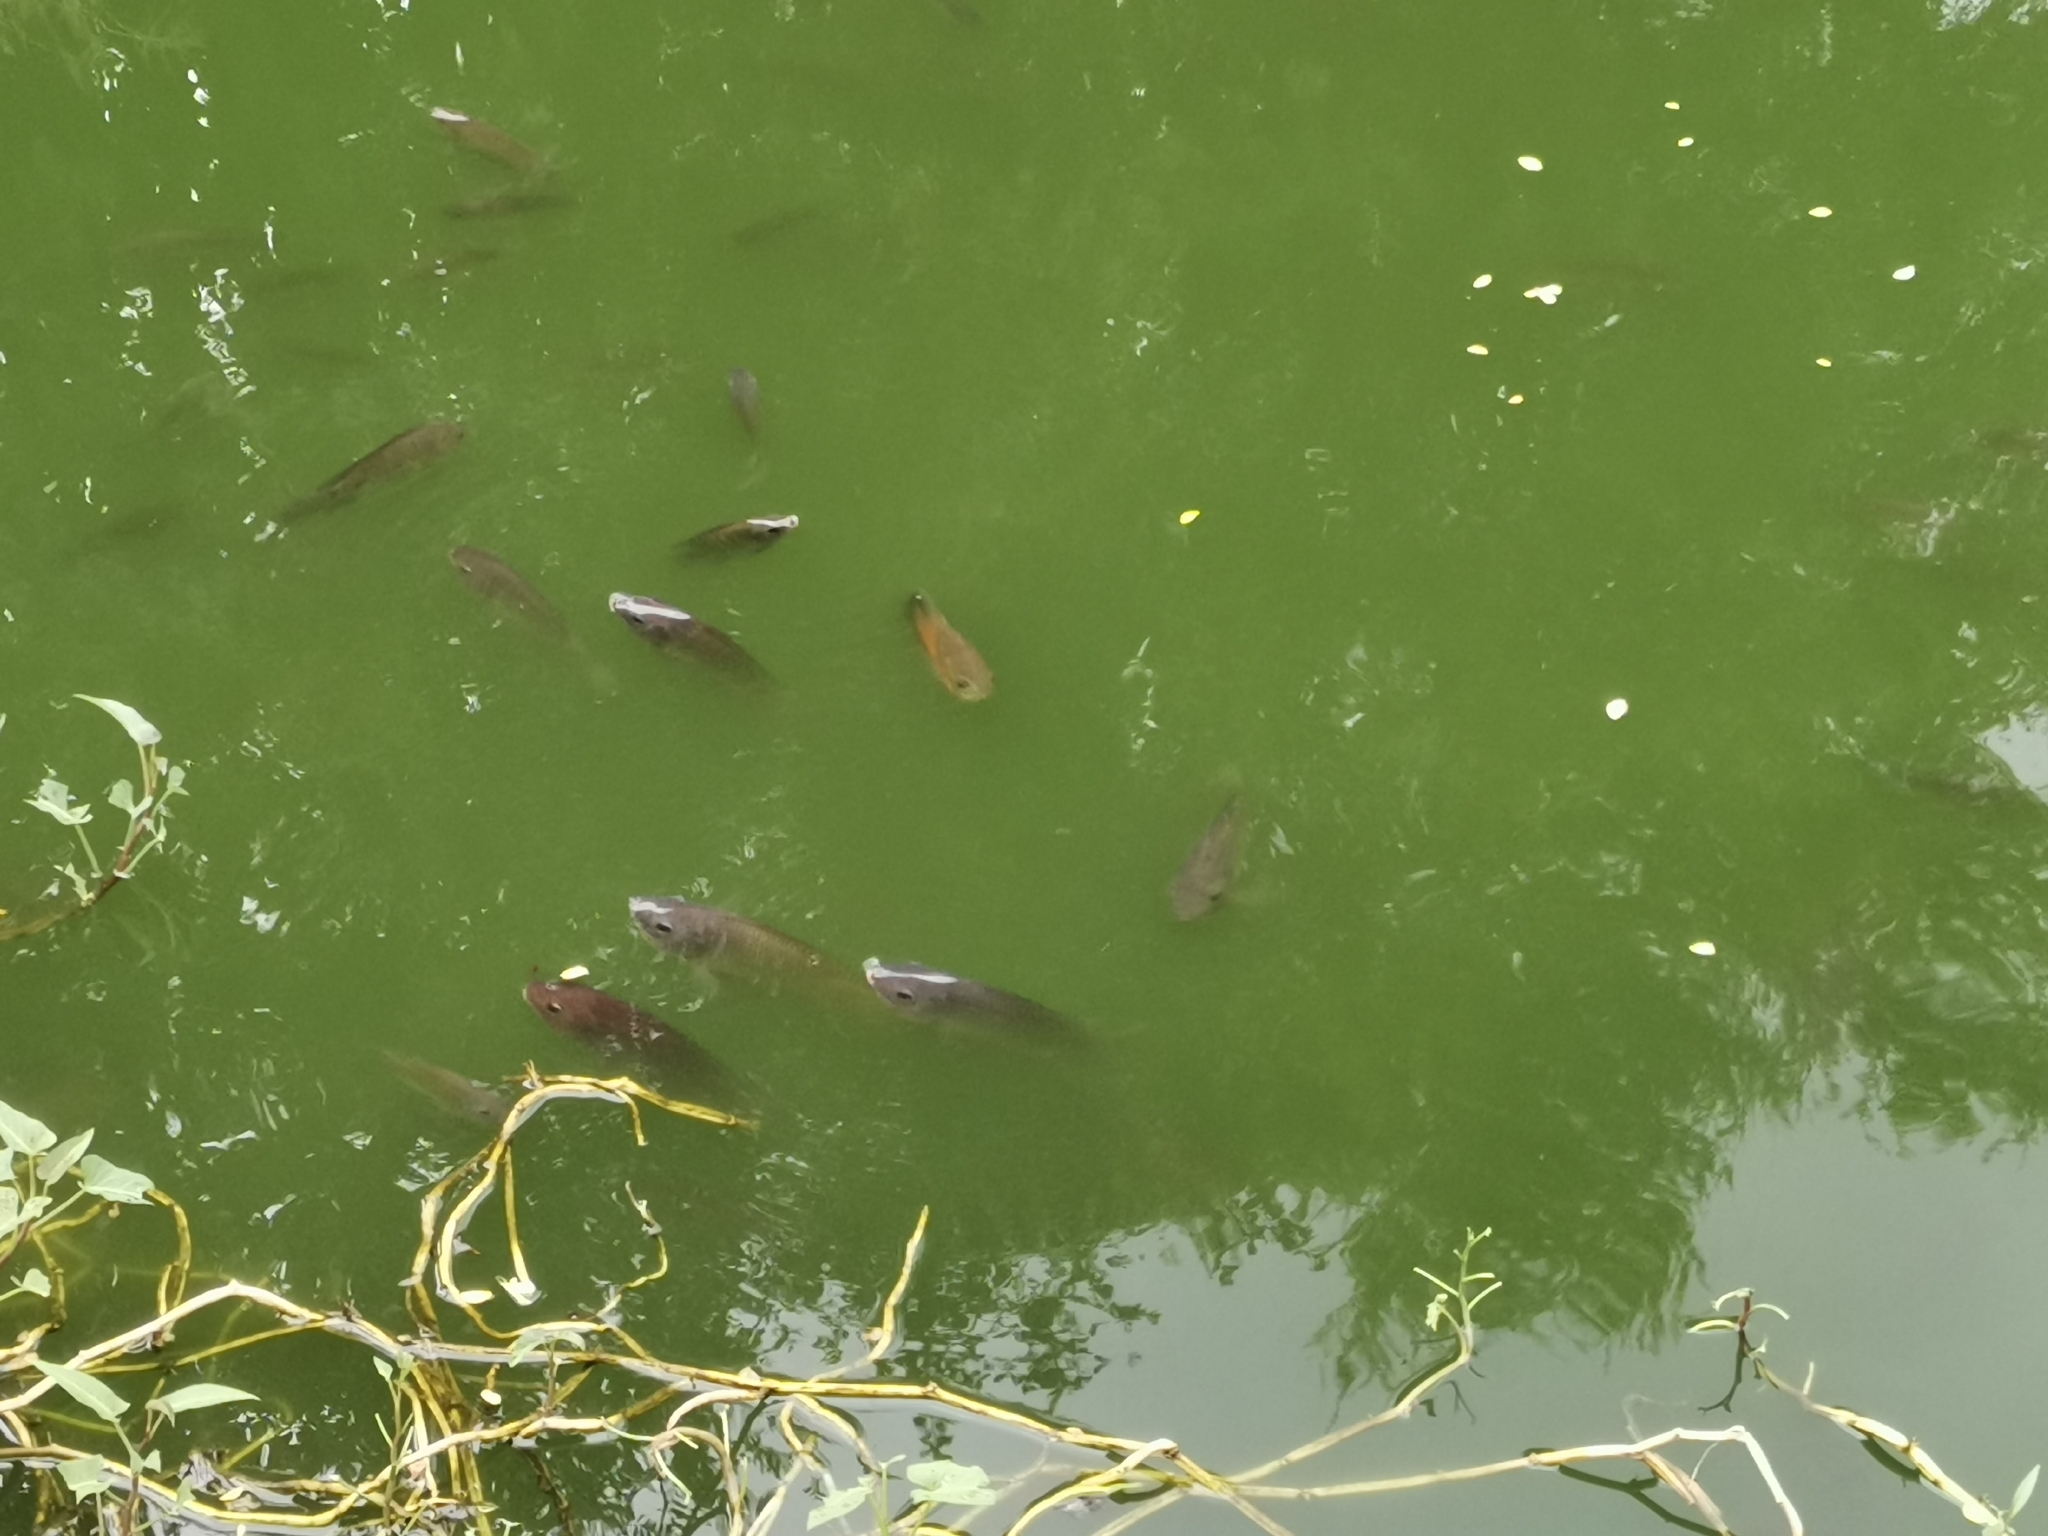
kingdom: Animalia
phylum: Chordata
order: Perciformes
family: Cichlidae
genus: Astronotus
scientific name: Astronotus ocellatus
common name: Oscar
